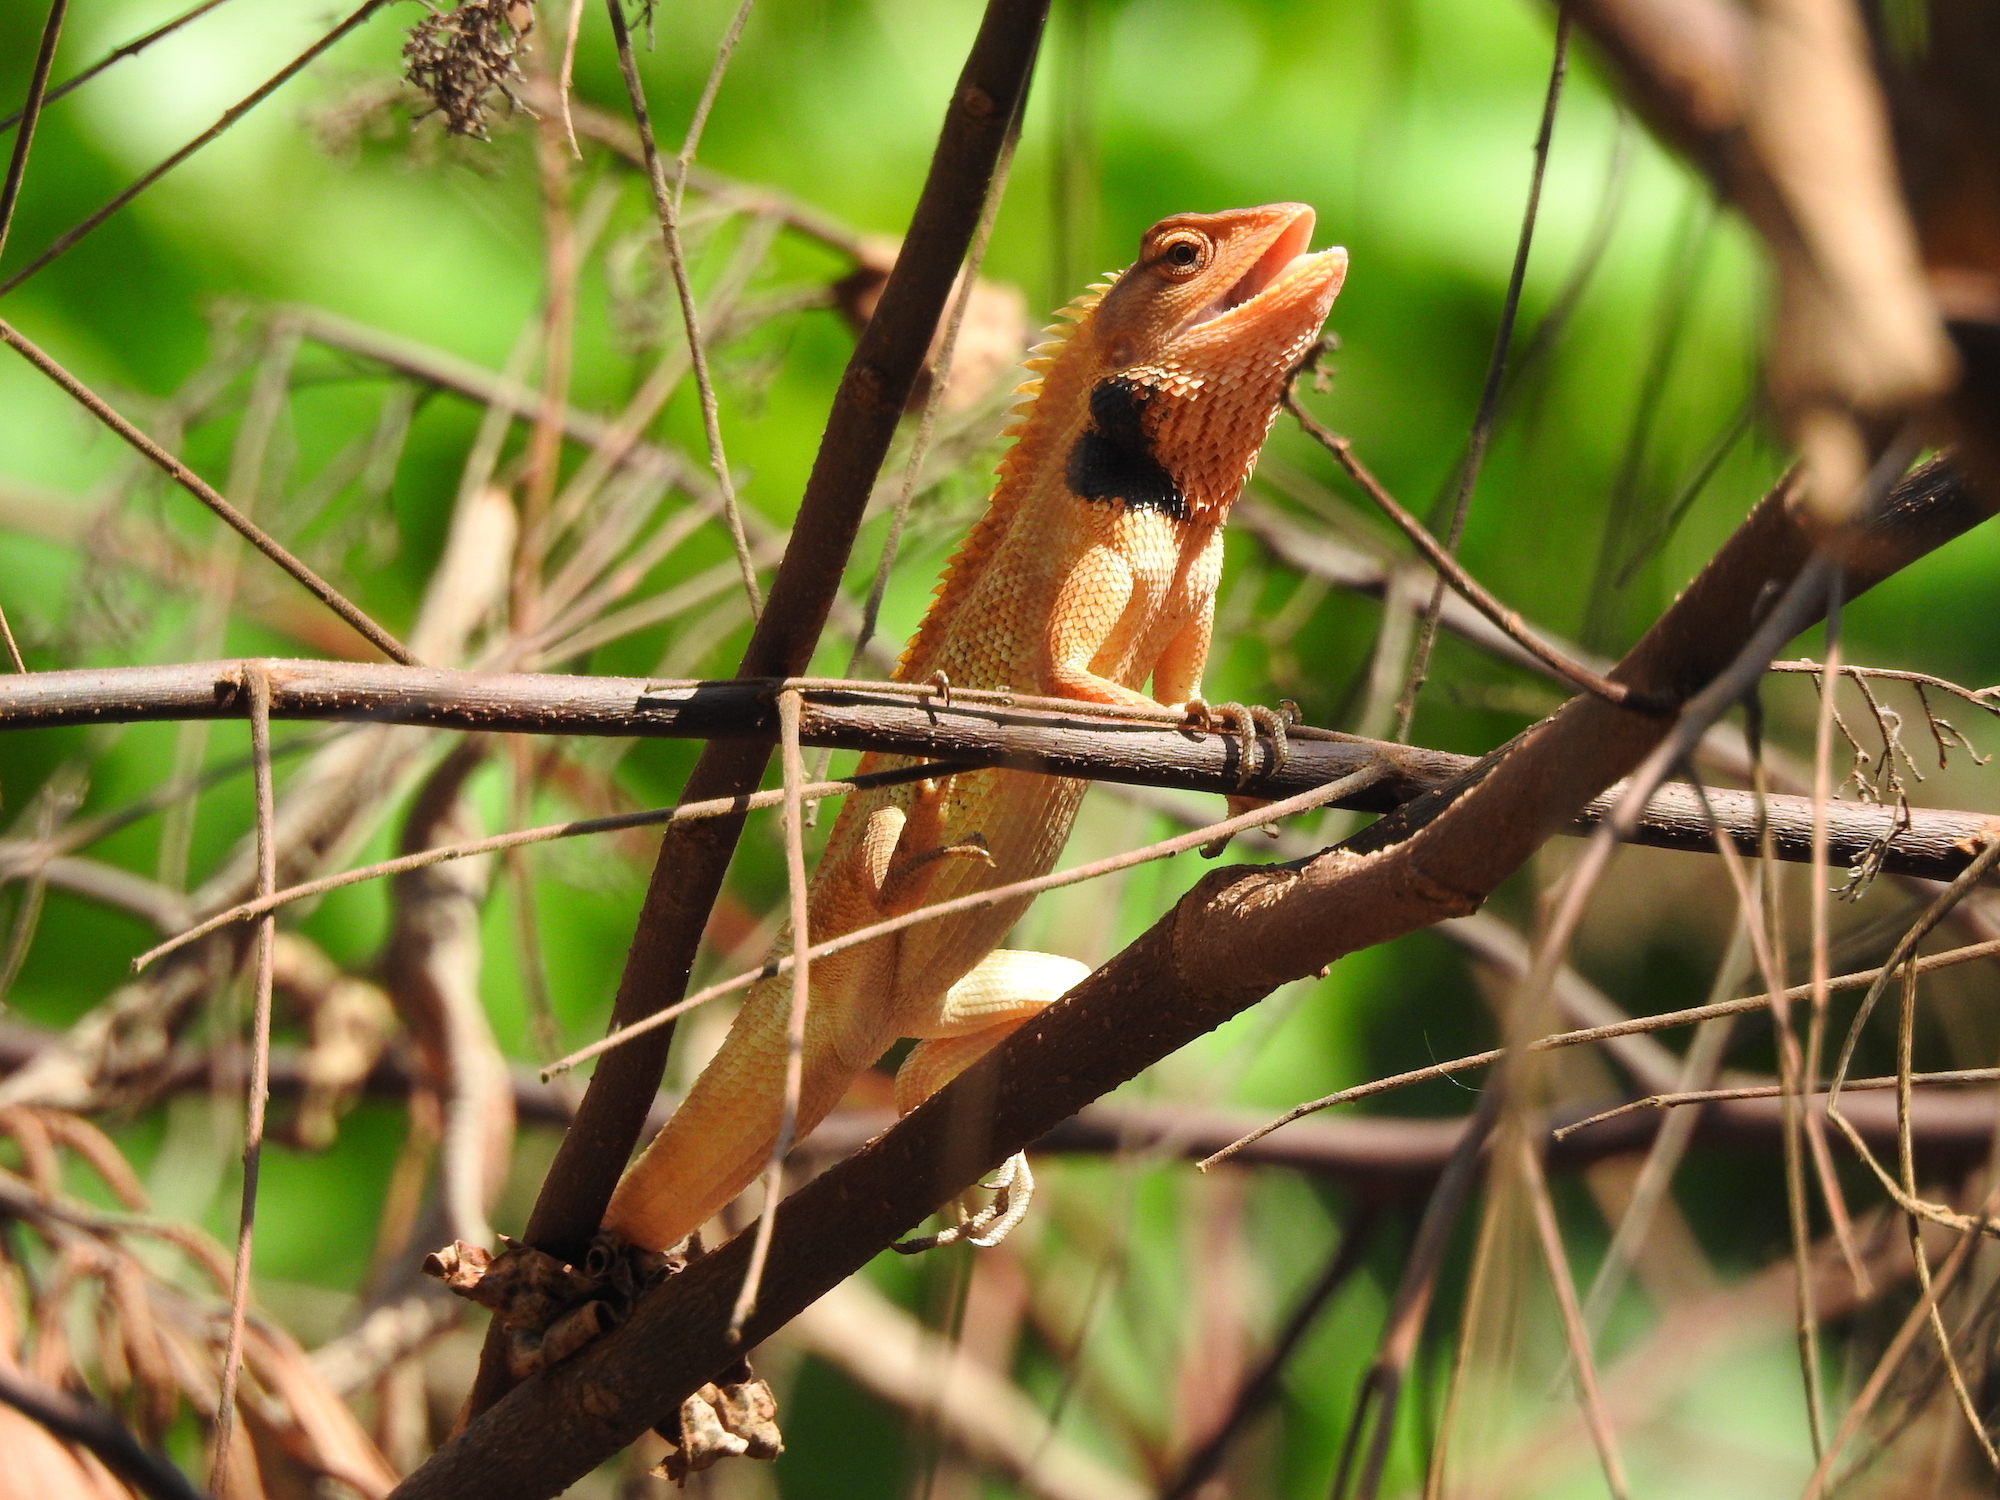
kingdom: Animalia
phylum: Chordata
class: Squamata
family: Agamidae
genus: Calotes
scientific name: Calotes versicolor
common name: Oriental garden lizard
